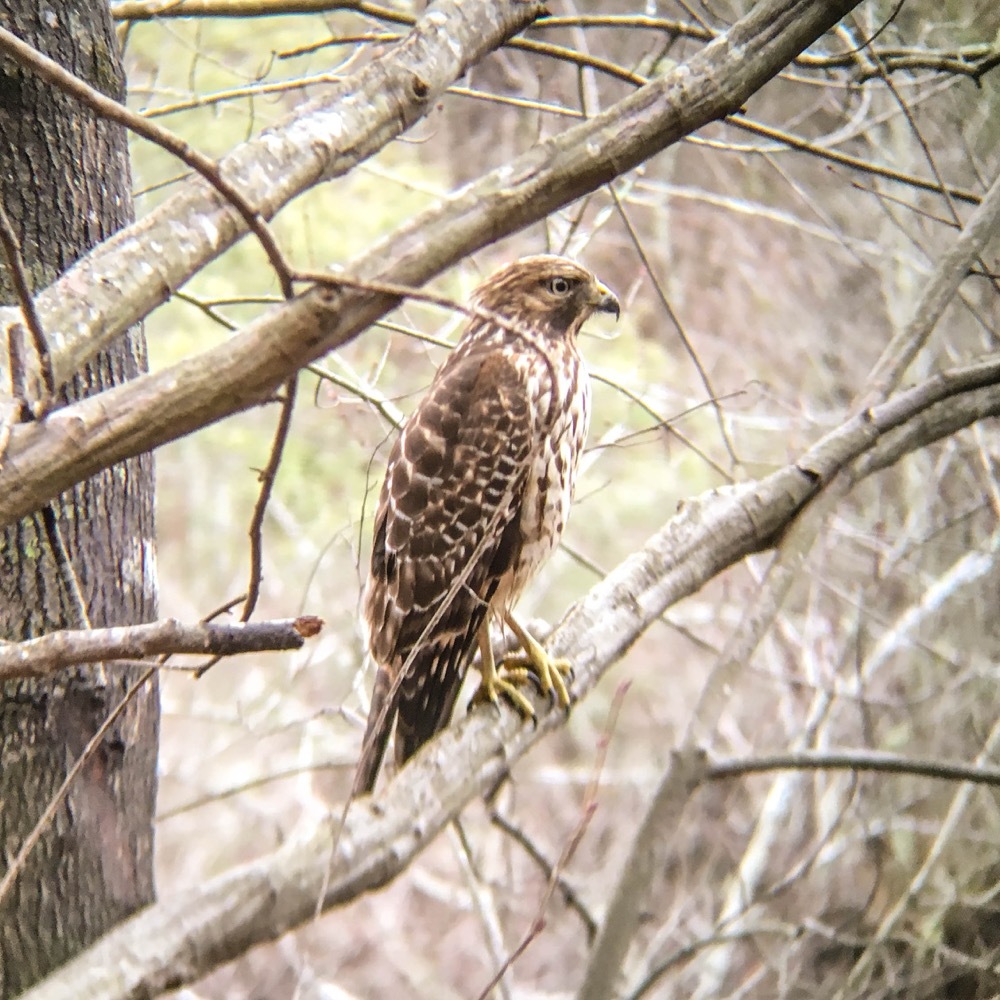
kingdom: Animalia
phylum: Chordata
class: Aves
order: Accipitriformes
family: Accipitridae
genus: Buteo
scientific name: Buteo lineatus
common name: Red-shouldered hawk
